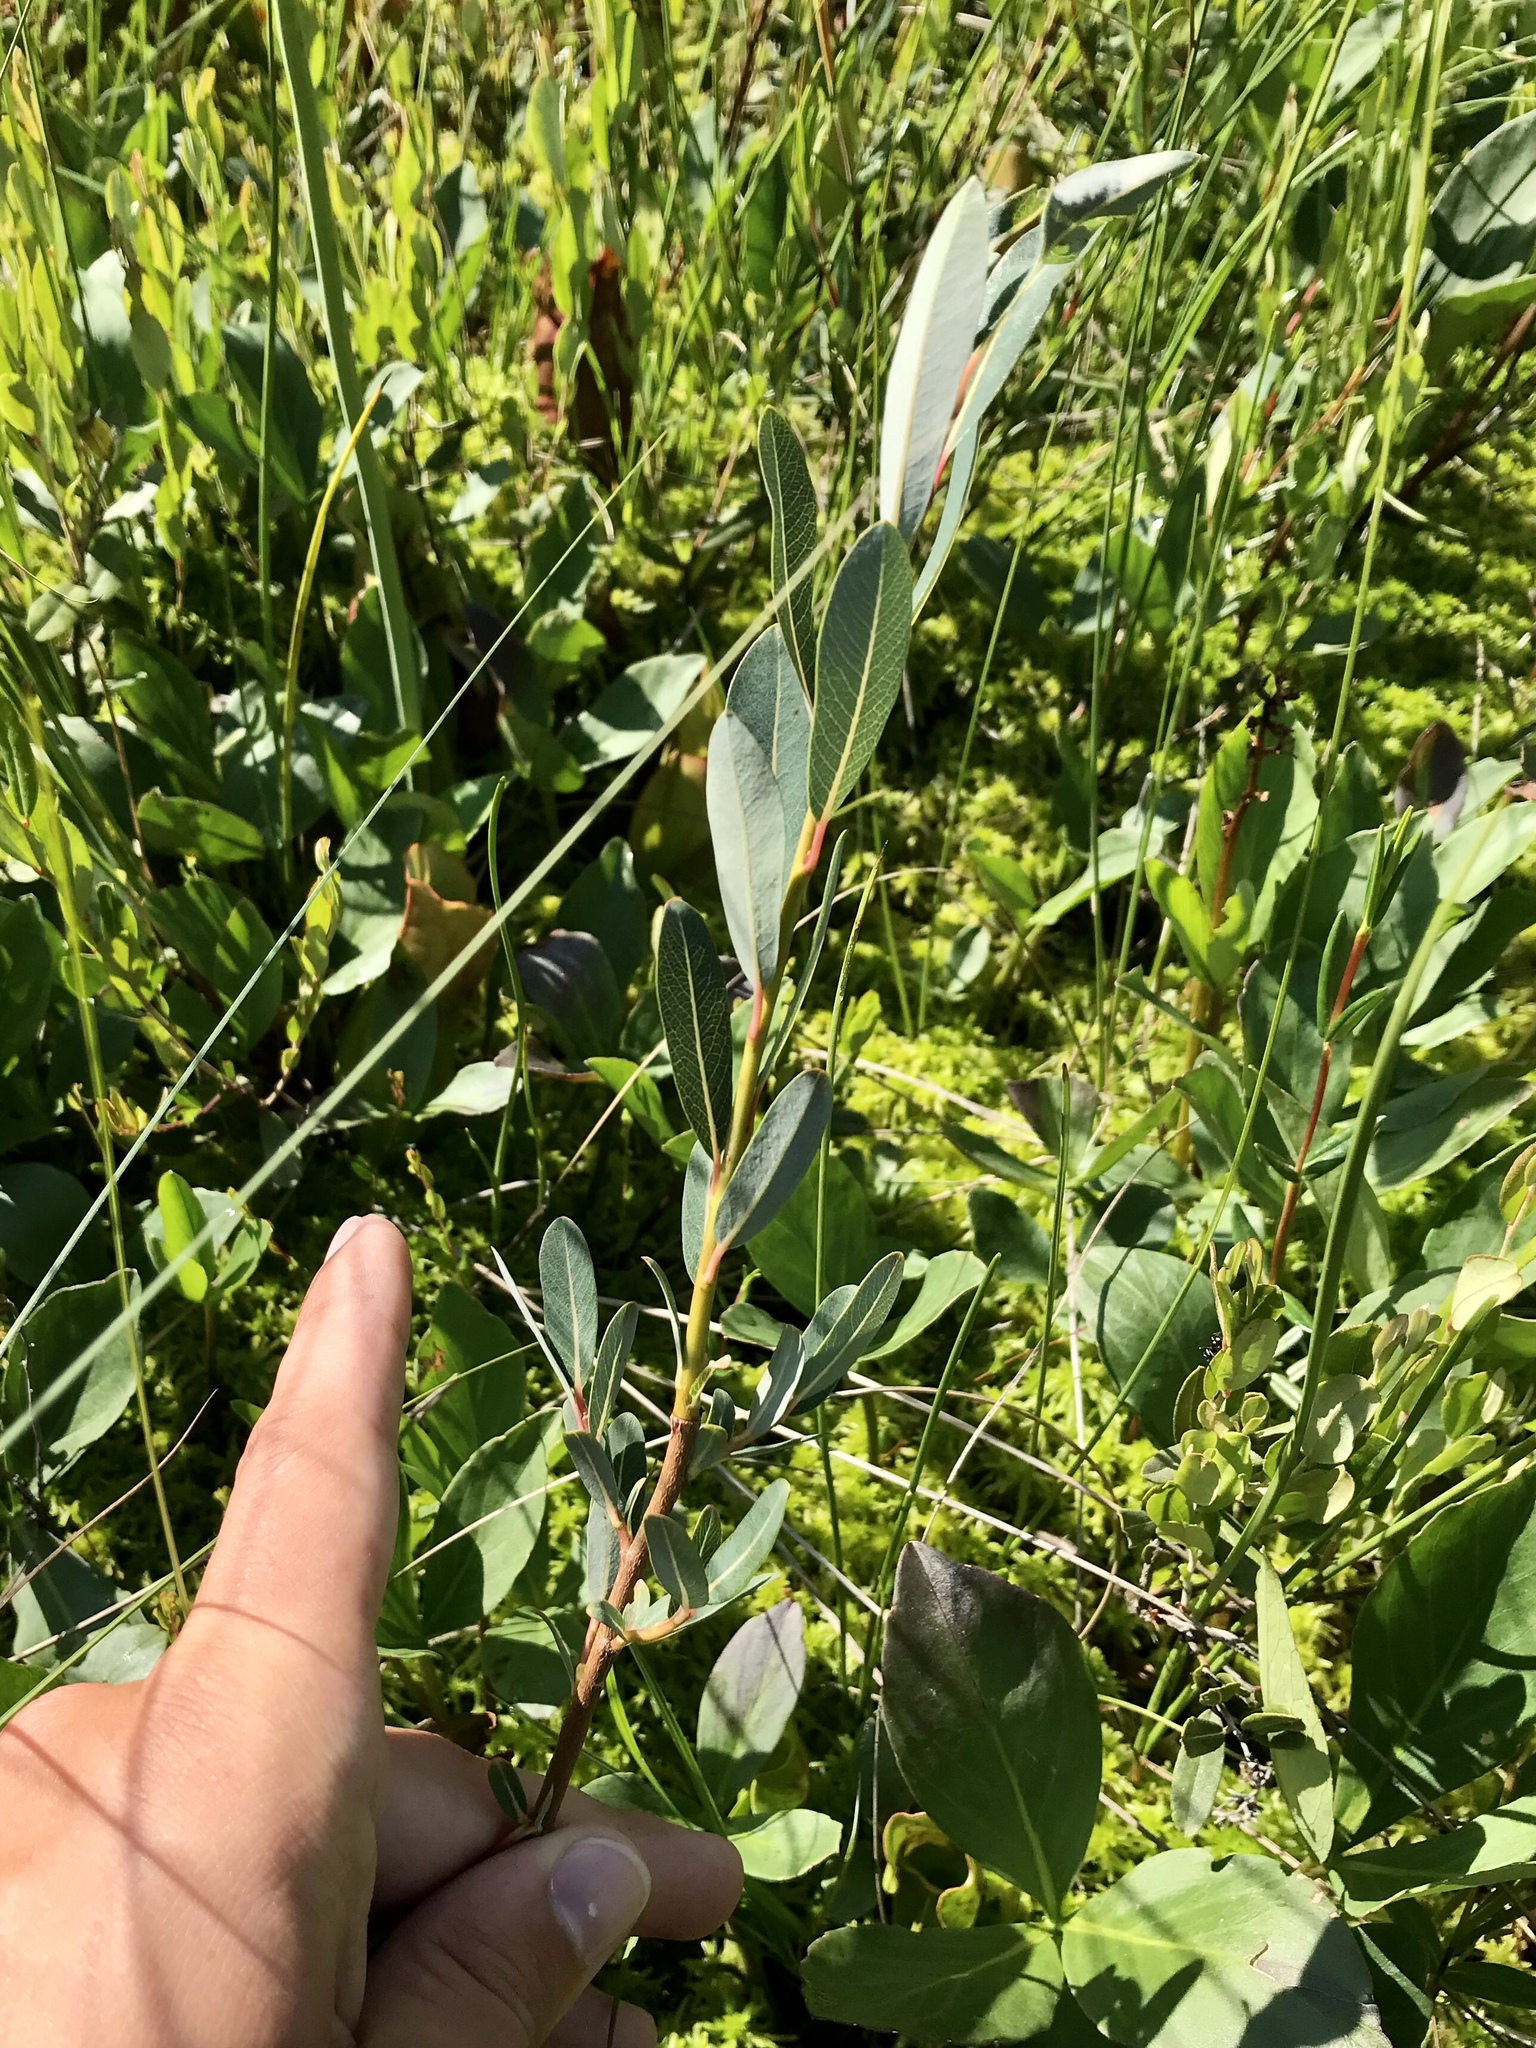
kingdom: Plantae
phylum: Tracheophyta
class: Magnoliopsida
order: Malpighiales
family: Salicaceae
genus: Salix
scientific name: Salix pedicellaris
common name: Bog willow
